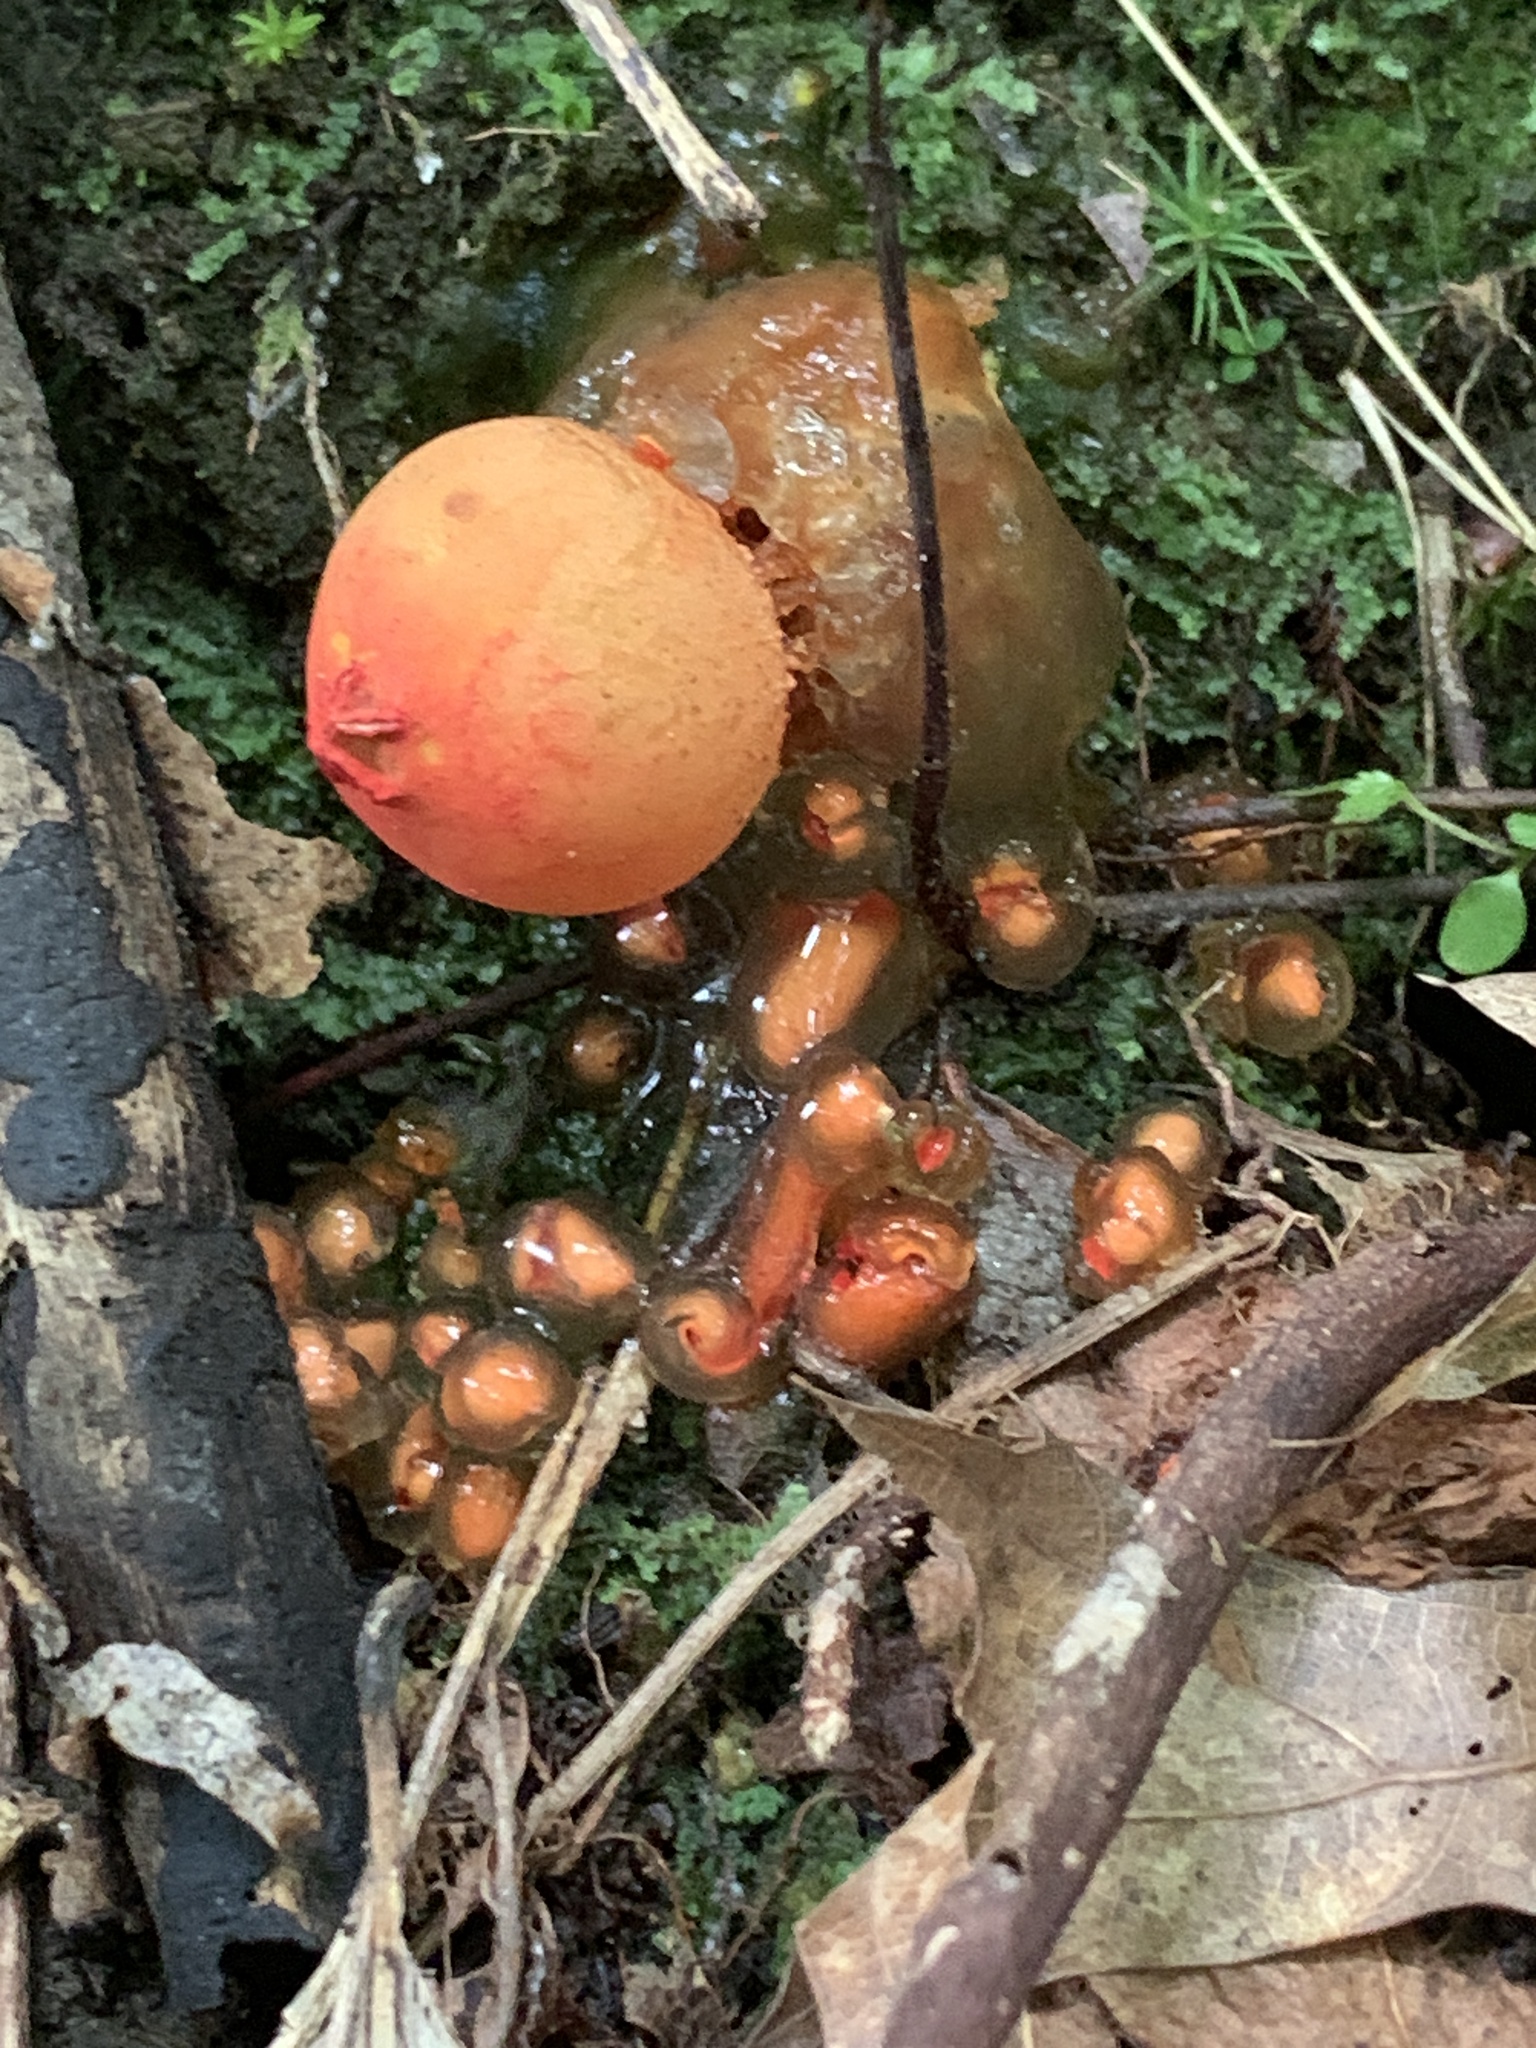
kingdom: Fungi
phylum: Basidiomycota
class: Agaricomycetes
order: Boletales
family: Calostomataceae
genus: Calostoma
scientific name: Calostoma cinnabarinum
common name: Stalked puffball-in-aspic
